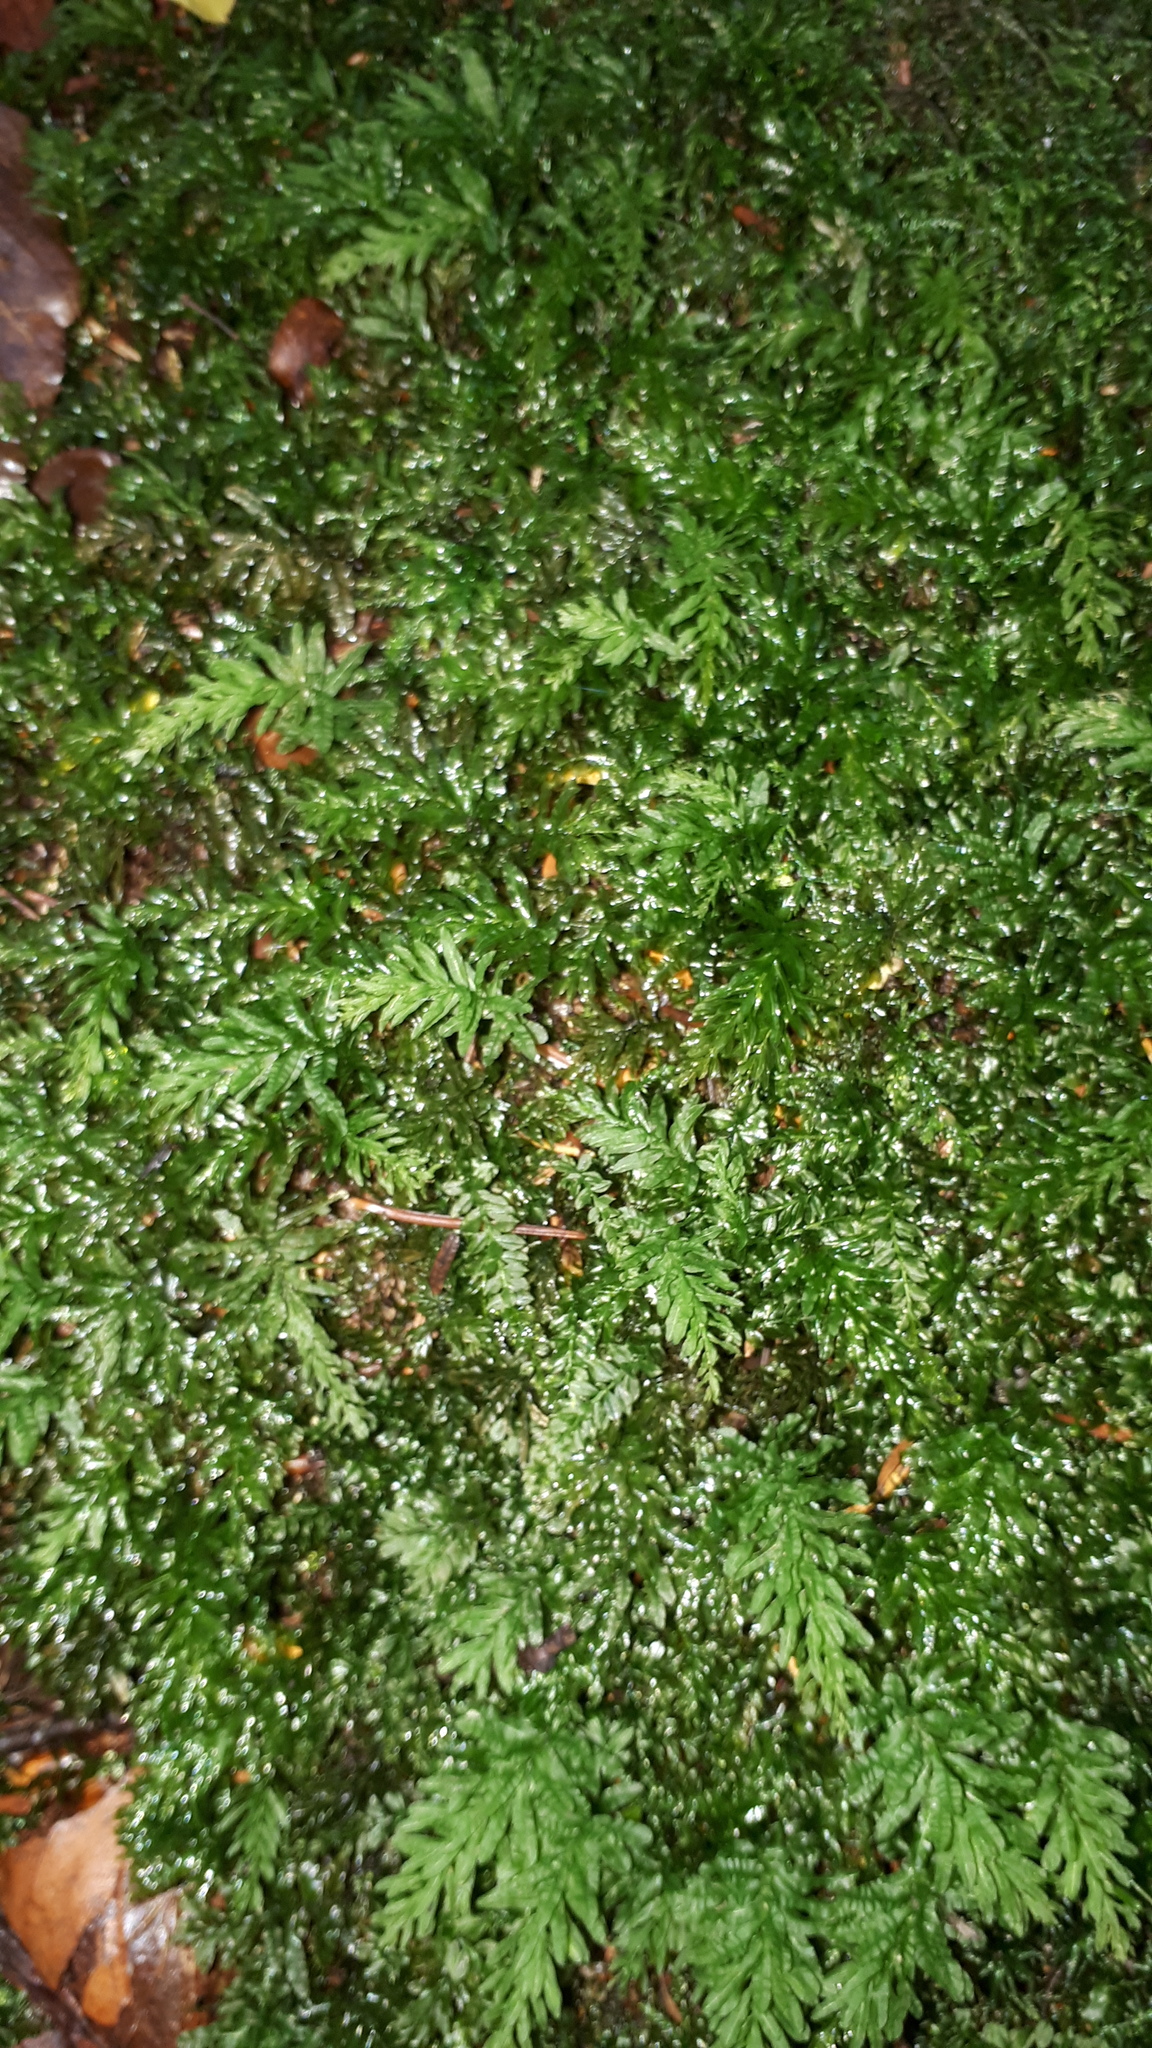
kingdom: Plantae
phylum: Bryophyta
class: Bryopsida
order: Bryales
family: Mniaceae
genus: Plagiomnium
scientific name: Plagiomnium undulatum
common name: Hart's-tongue thyme-moss
